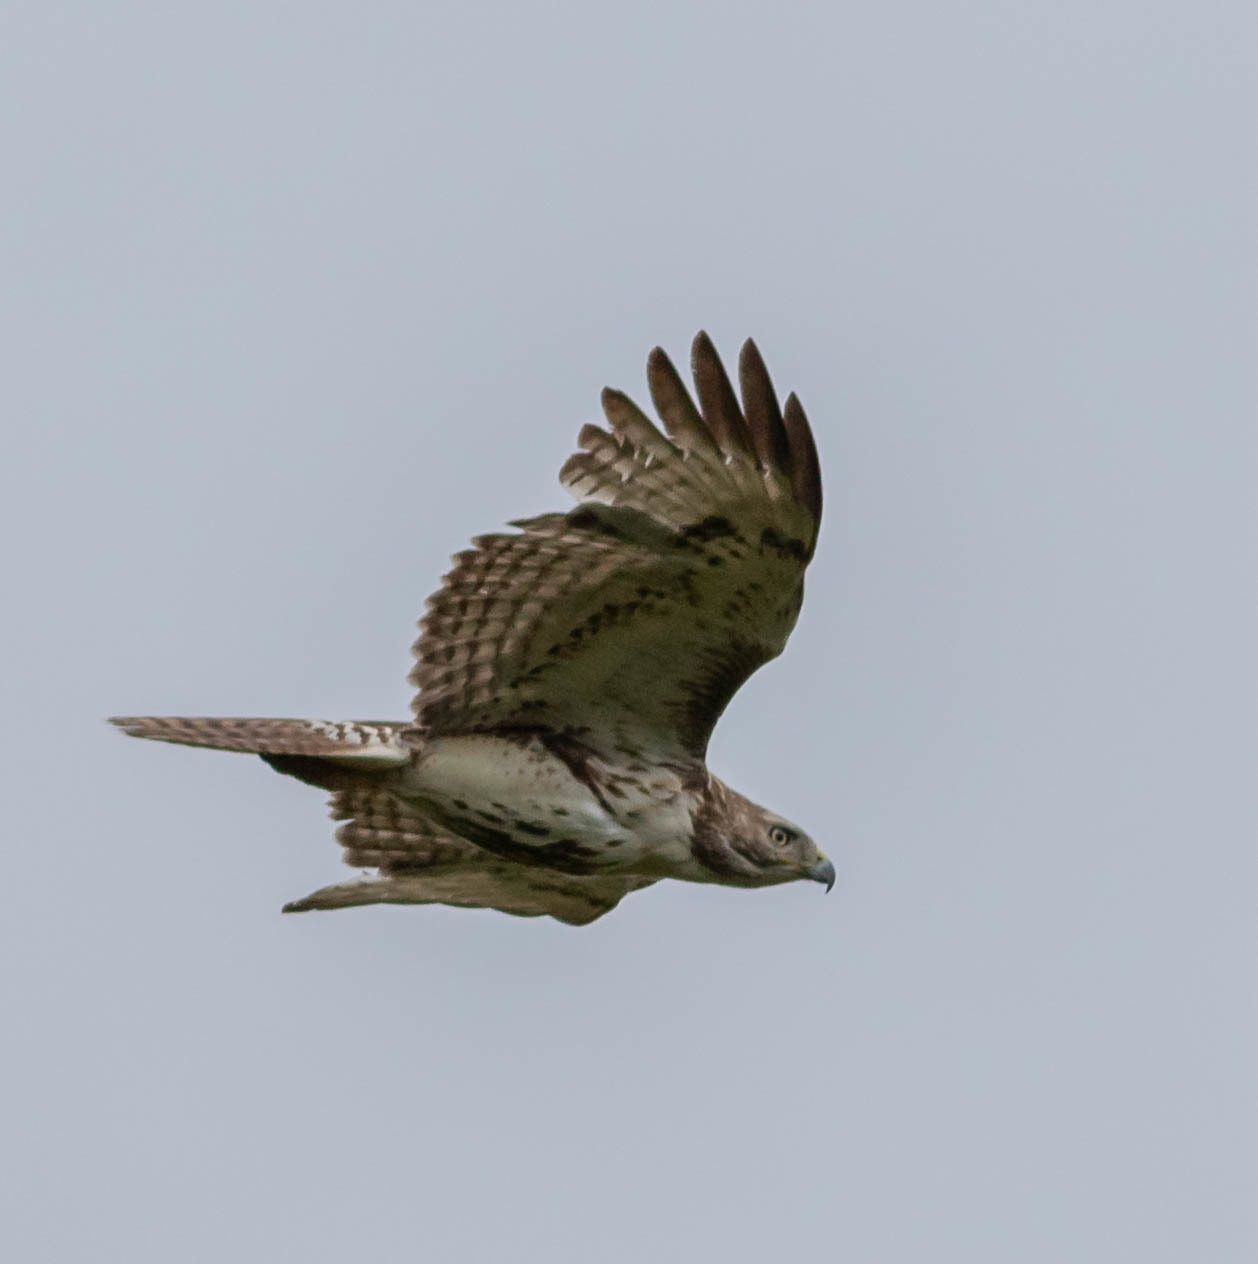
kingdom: Animalia
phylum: Chordata
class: Aves
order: Accipitriformes
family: Accipitridae
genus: Buteo
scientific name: Buteo jamaicensis
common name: Red-tailed hawk
